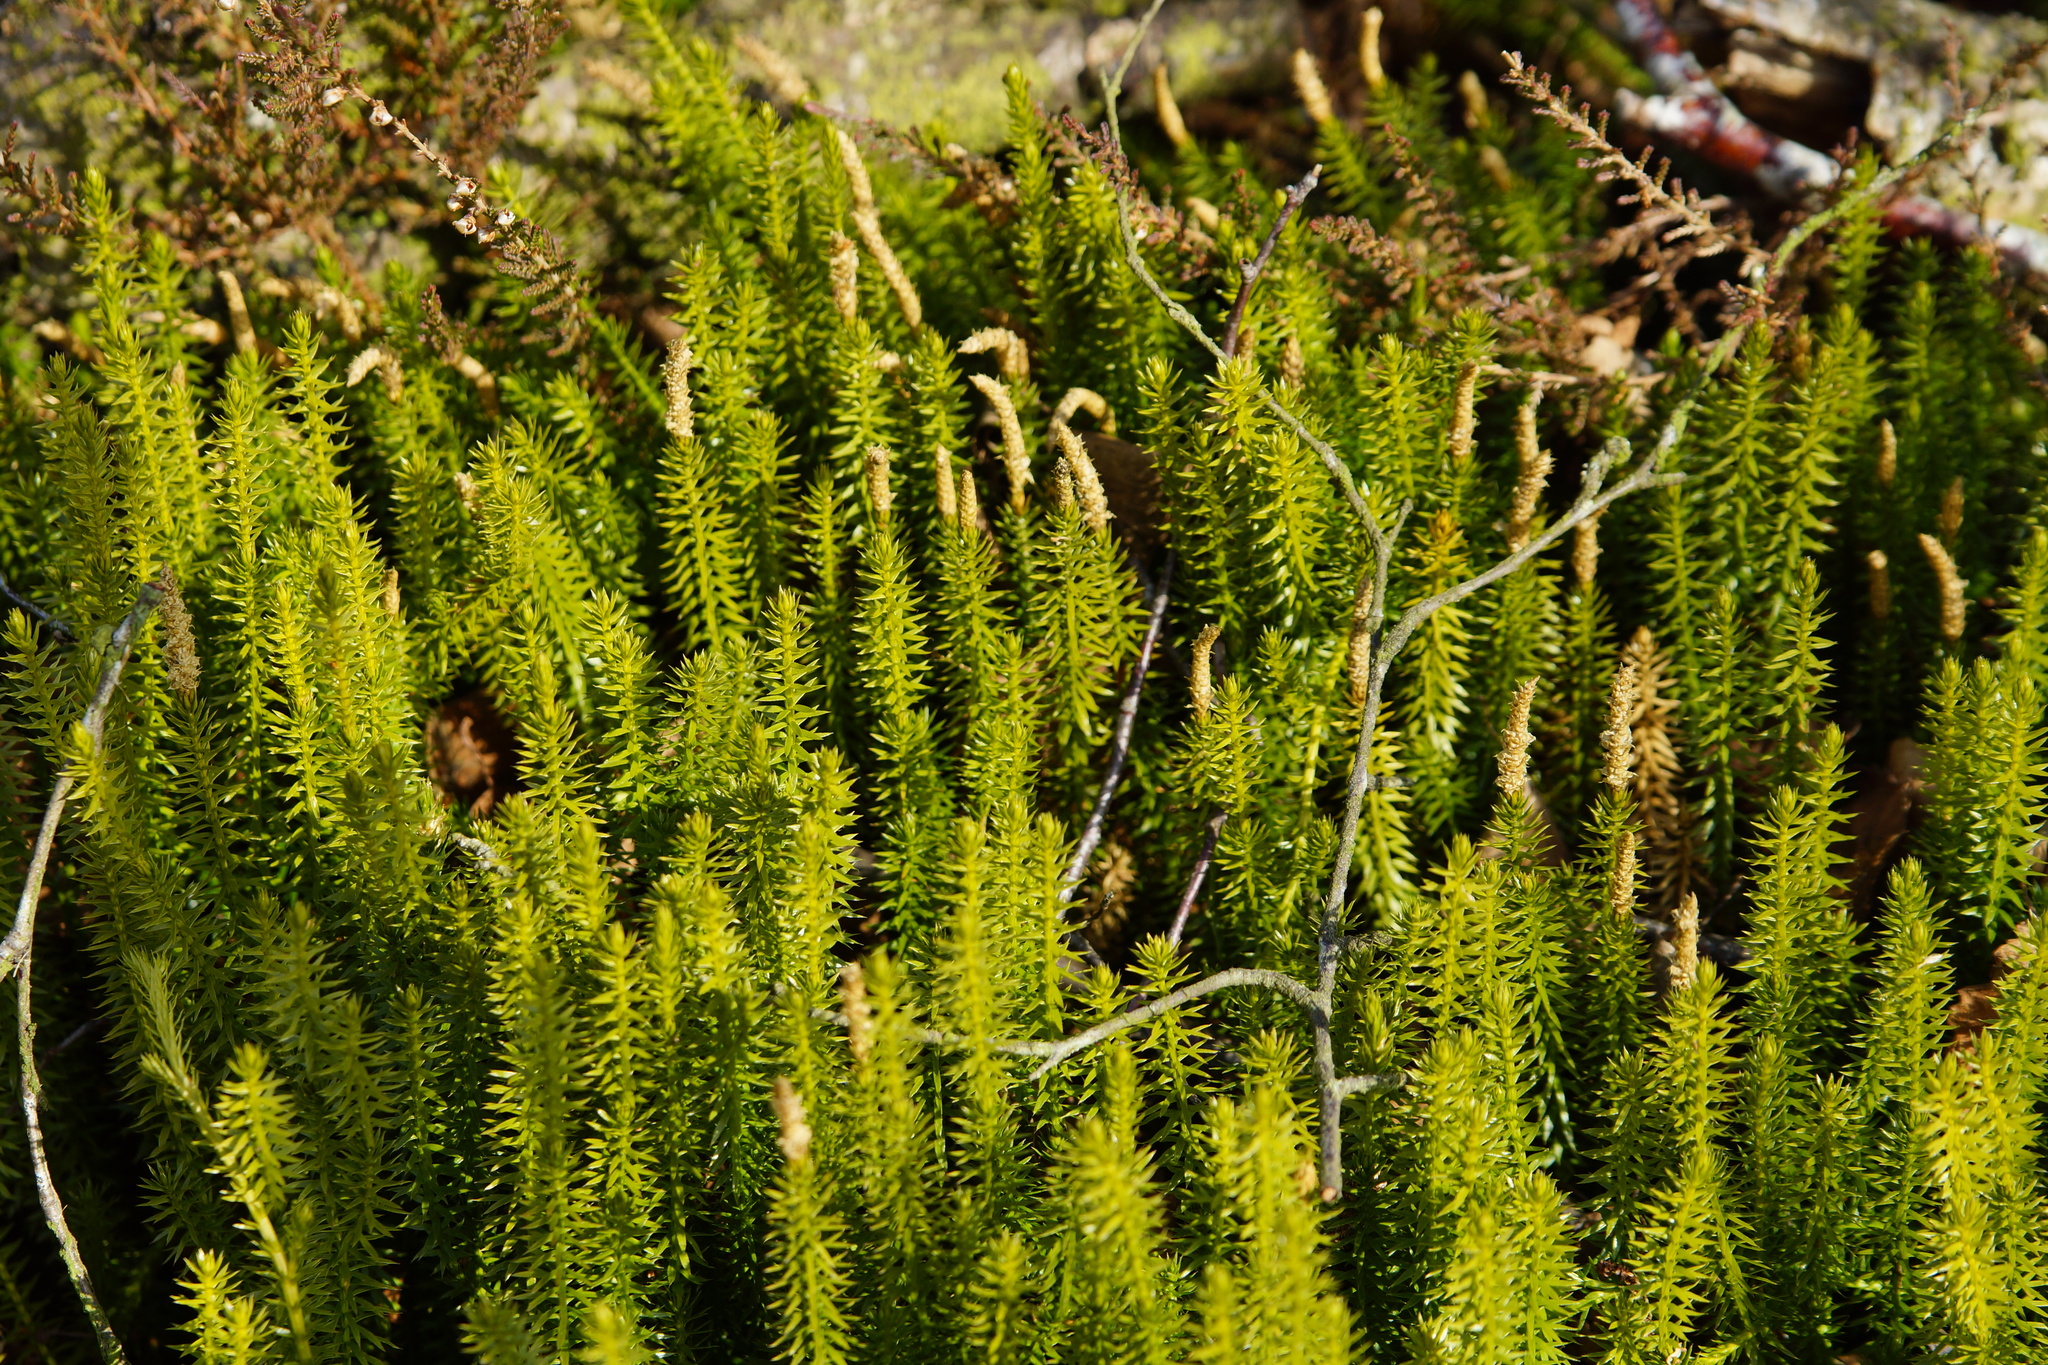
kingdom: Plantae
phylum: Tracheophyta
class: Lycopodiopsida
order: Lycopodiales
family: Lycopodiaceae
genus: Spinulum
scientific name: Spinulum annotinum
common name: Interrupted club-moss
